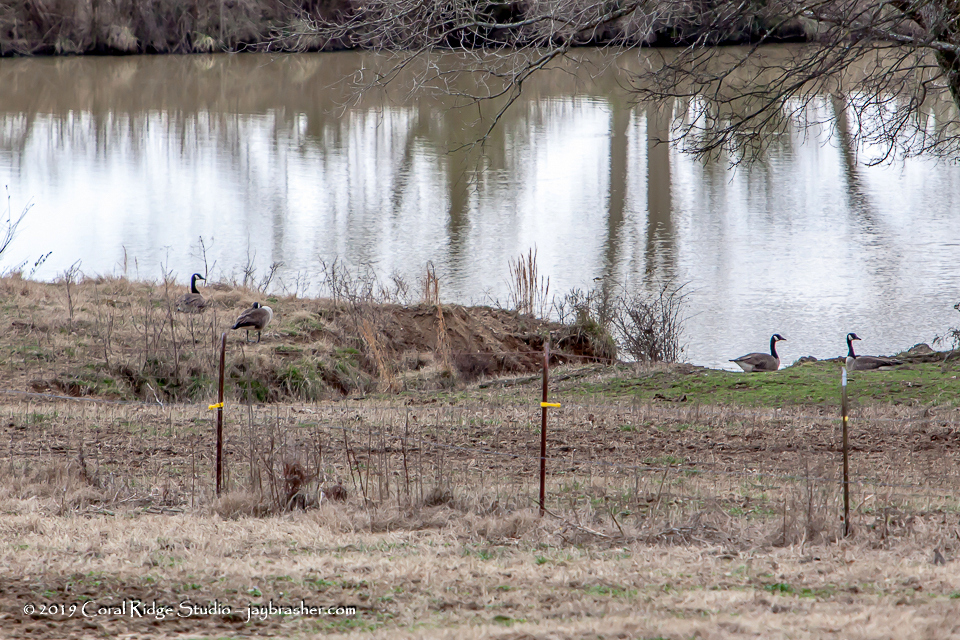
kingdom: Animalia
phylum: Chordata
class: Aves
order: Anseriformes
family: Anatidae
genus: Branta
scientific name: Branta canadensis
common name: Canada goose
